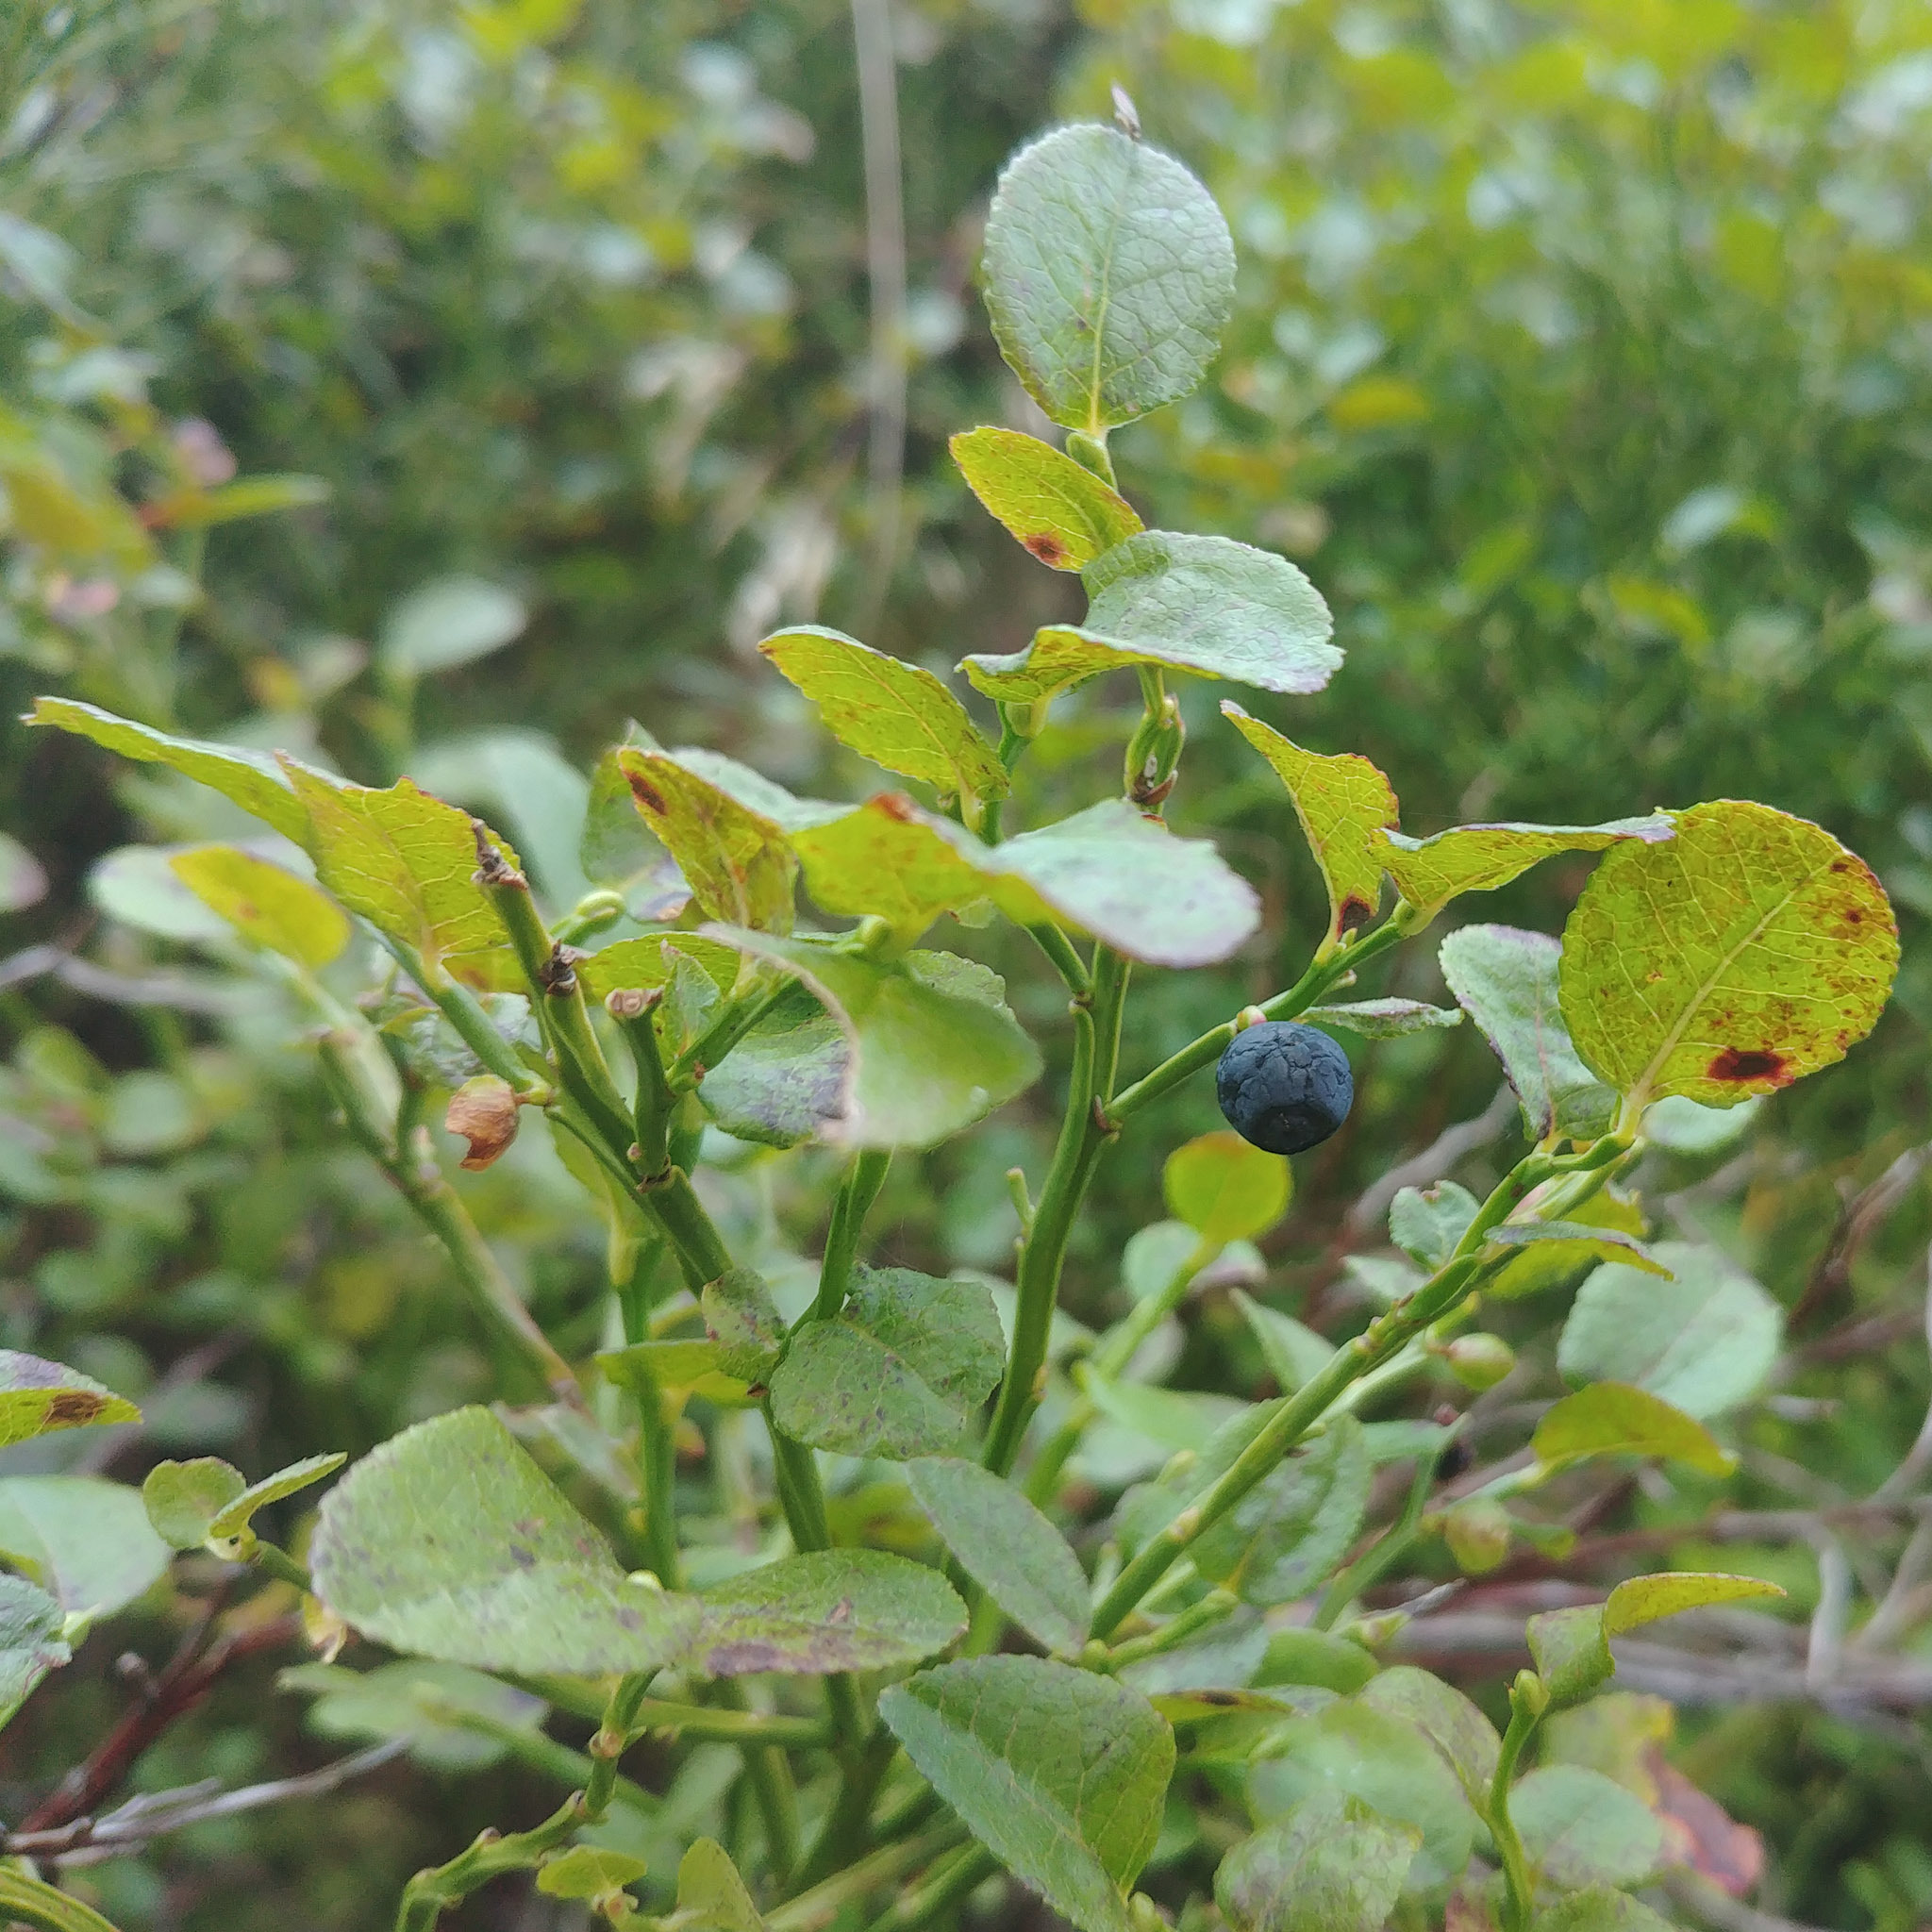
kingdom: Plantae
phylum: Tracheophyta
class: Magnoliopsida
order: Ericales
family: Ericaceae
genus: Vaccinium
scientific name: Vaccinium myrtillus
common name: Bilberry
